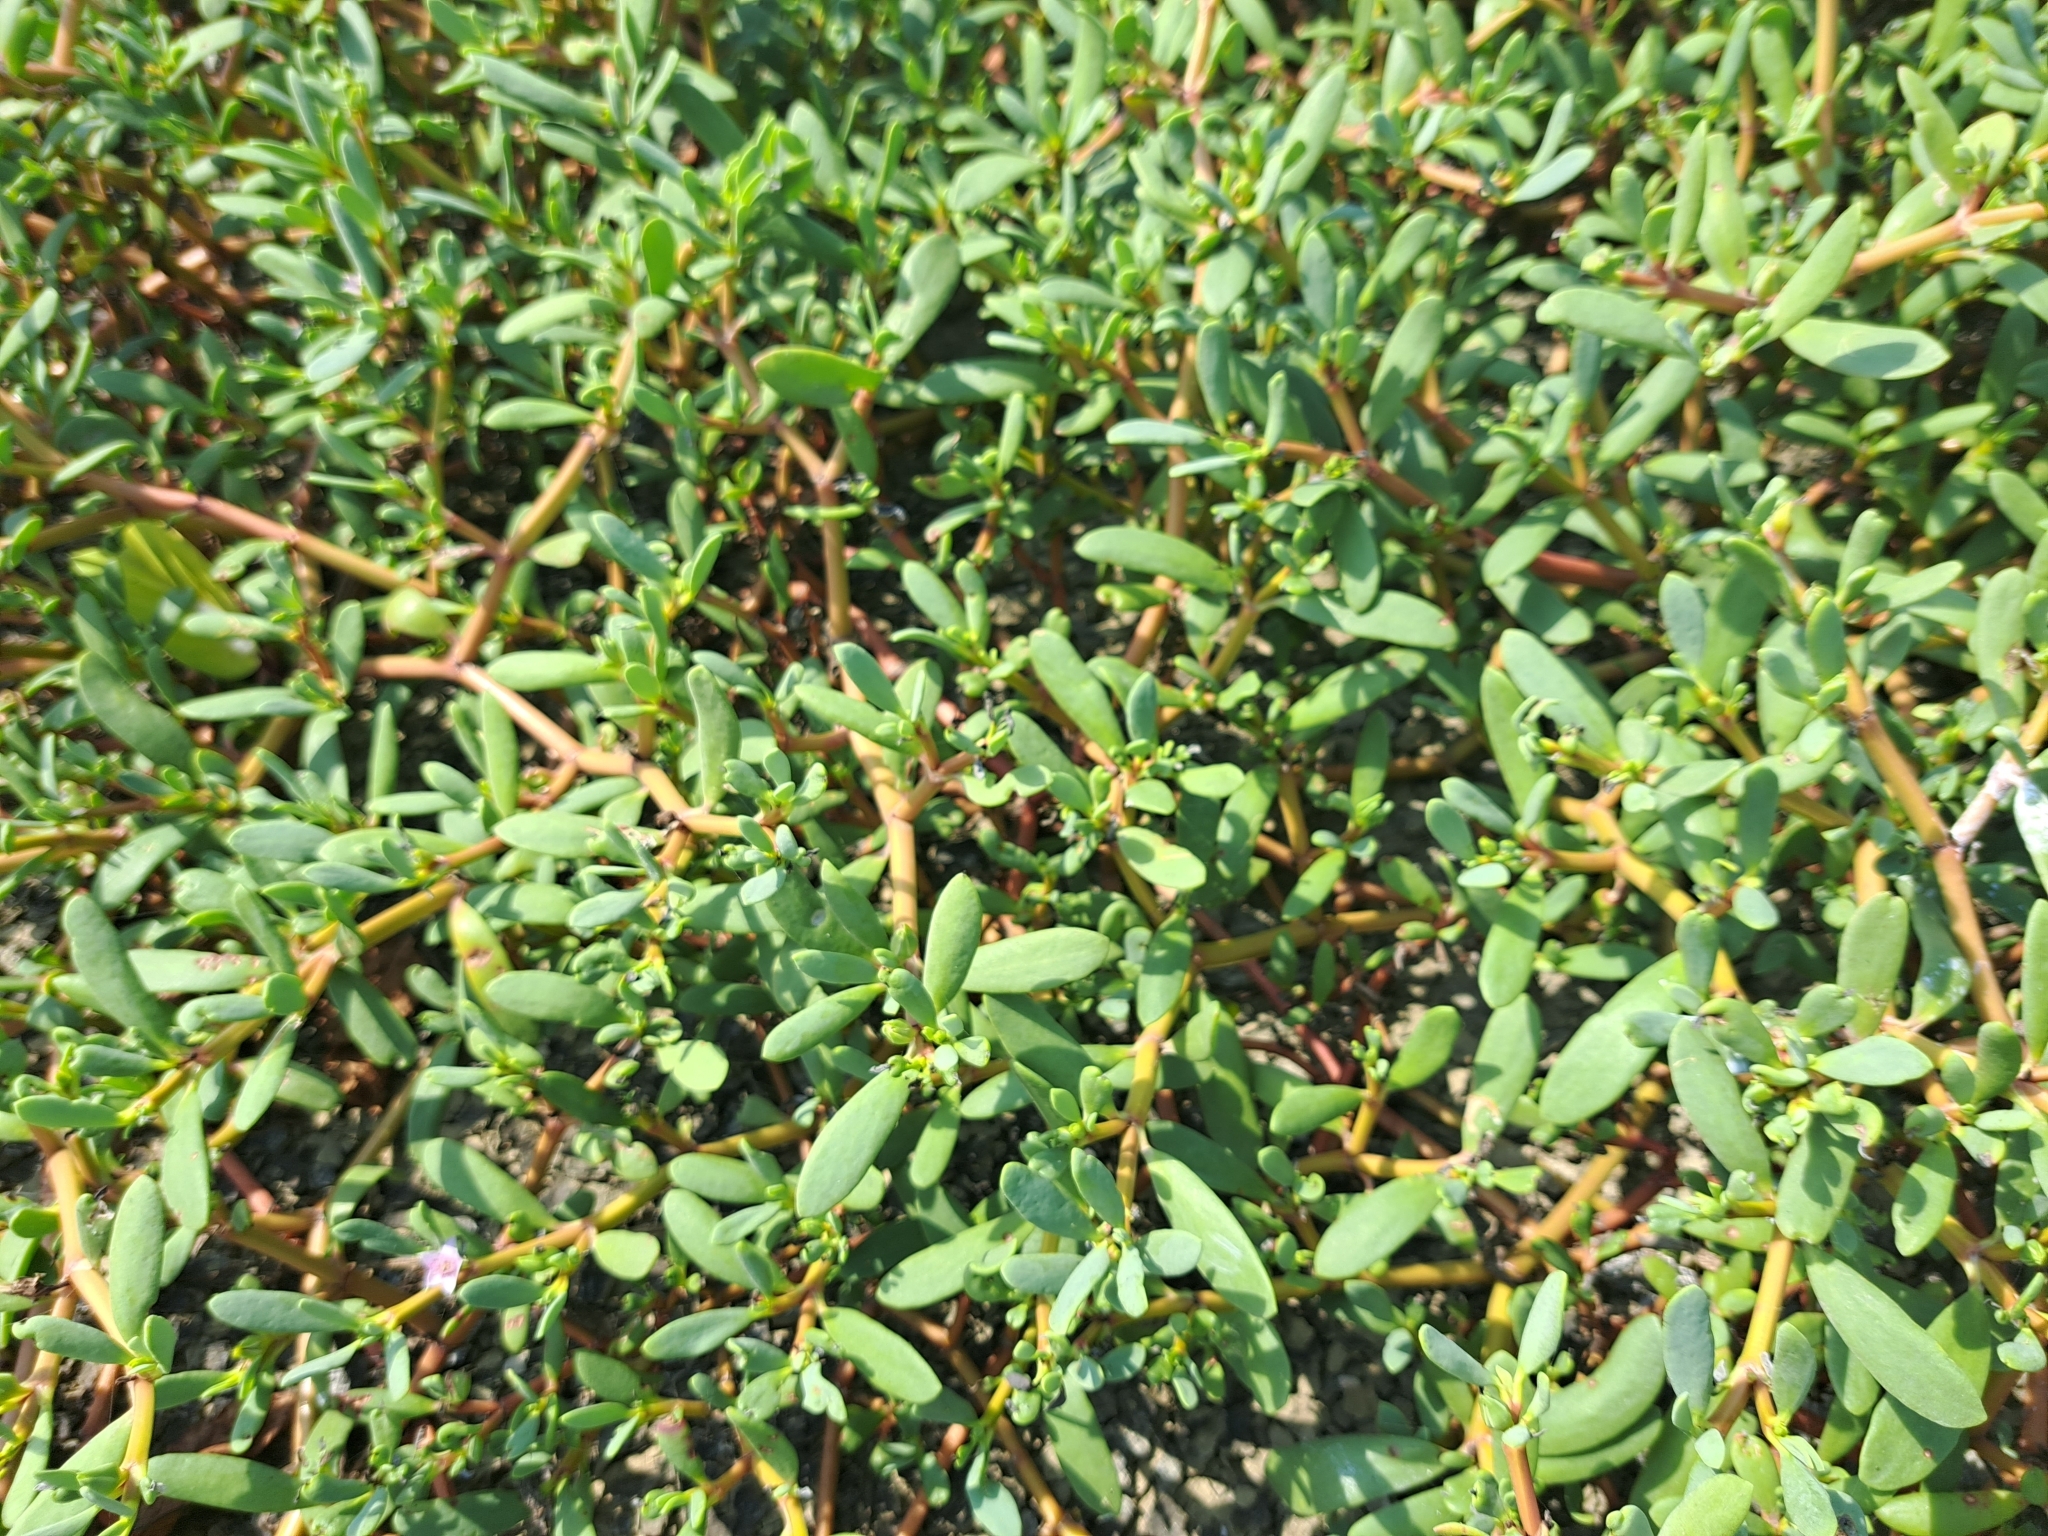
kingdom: Plantae
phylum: Tracheophyta
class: Magnoliopsida
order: Caryophyllales
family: Aizoaceae
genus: Sesuvium
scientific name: Sesuvium portulacastrum
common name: Sea-purslane
